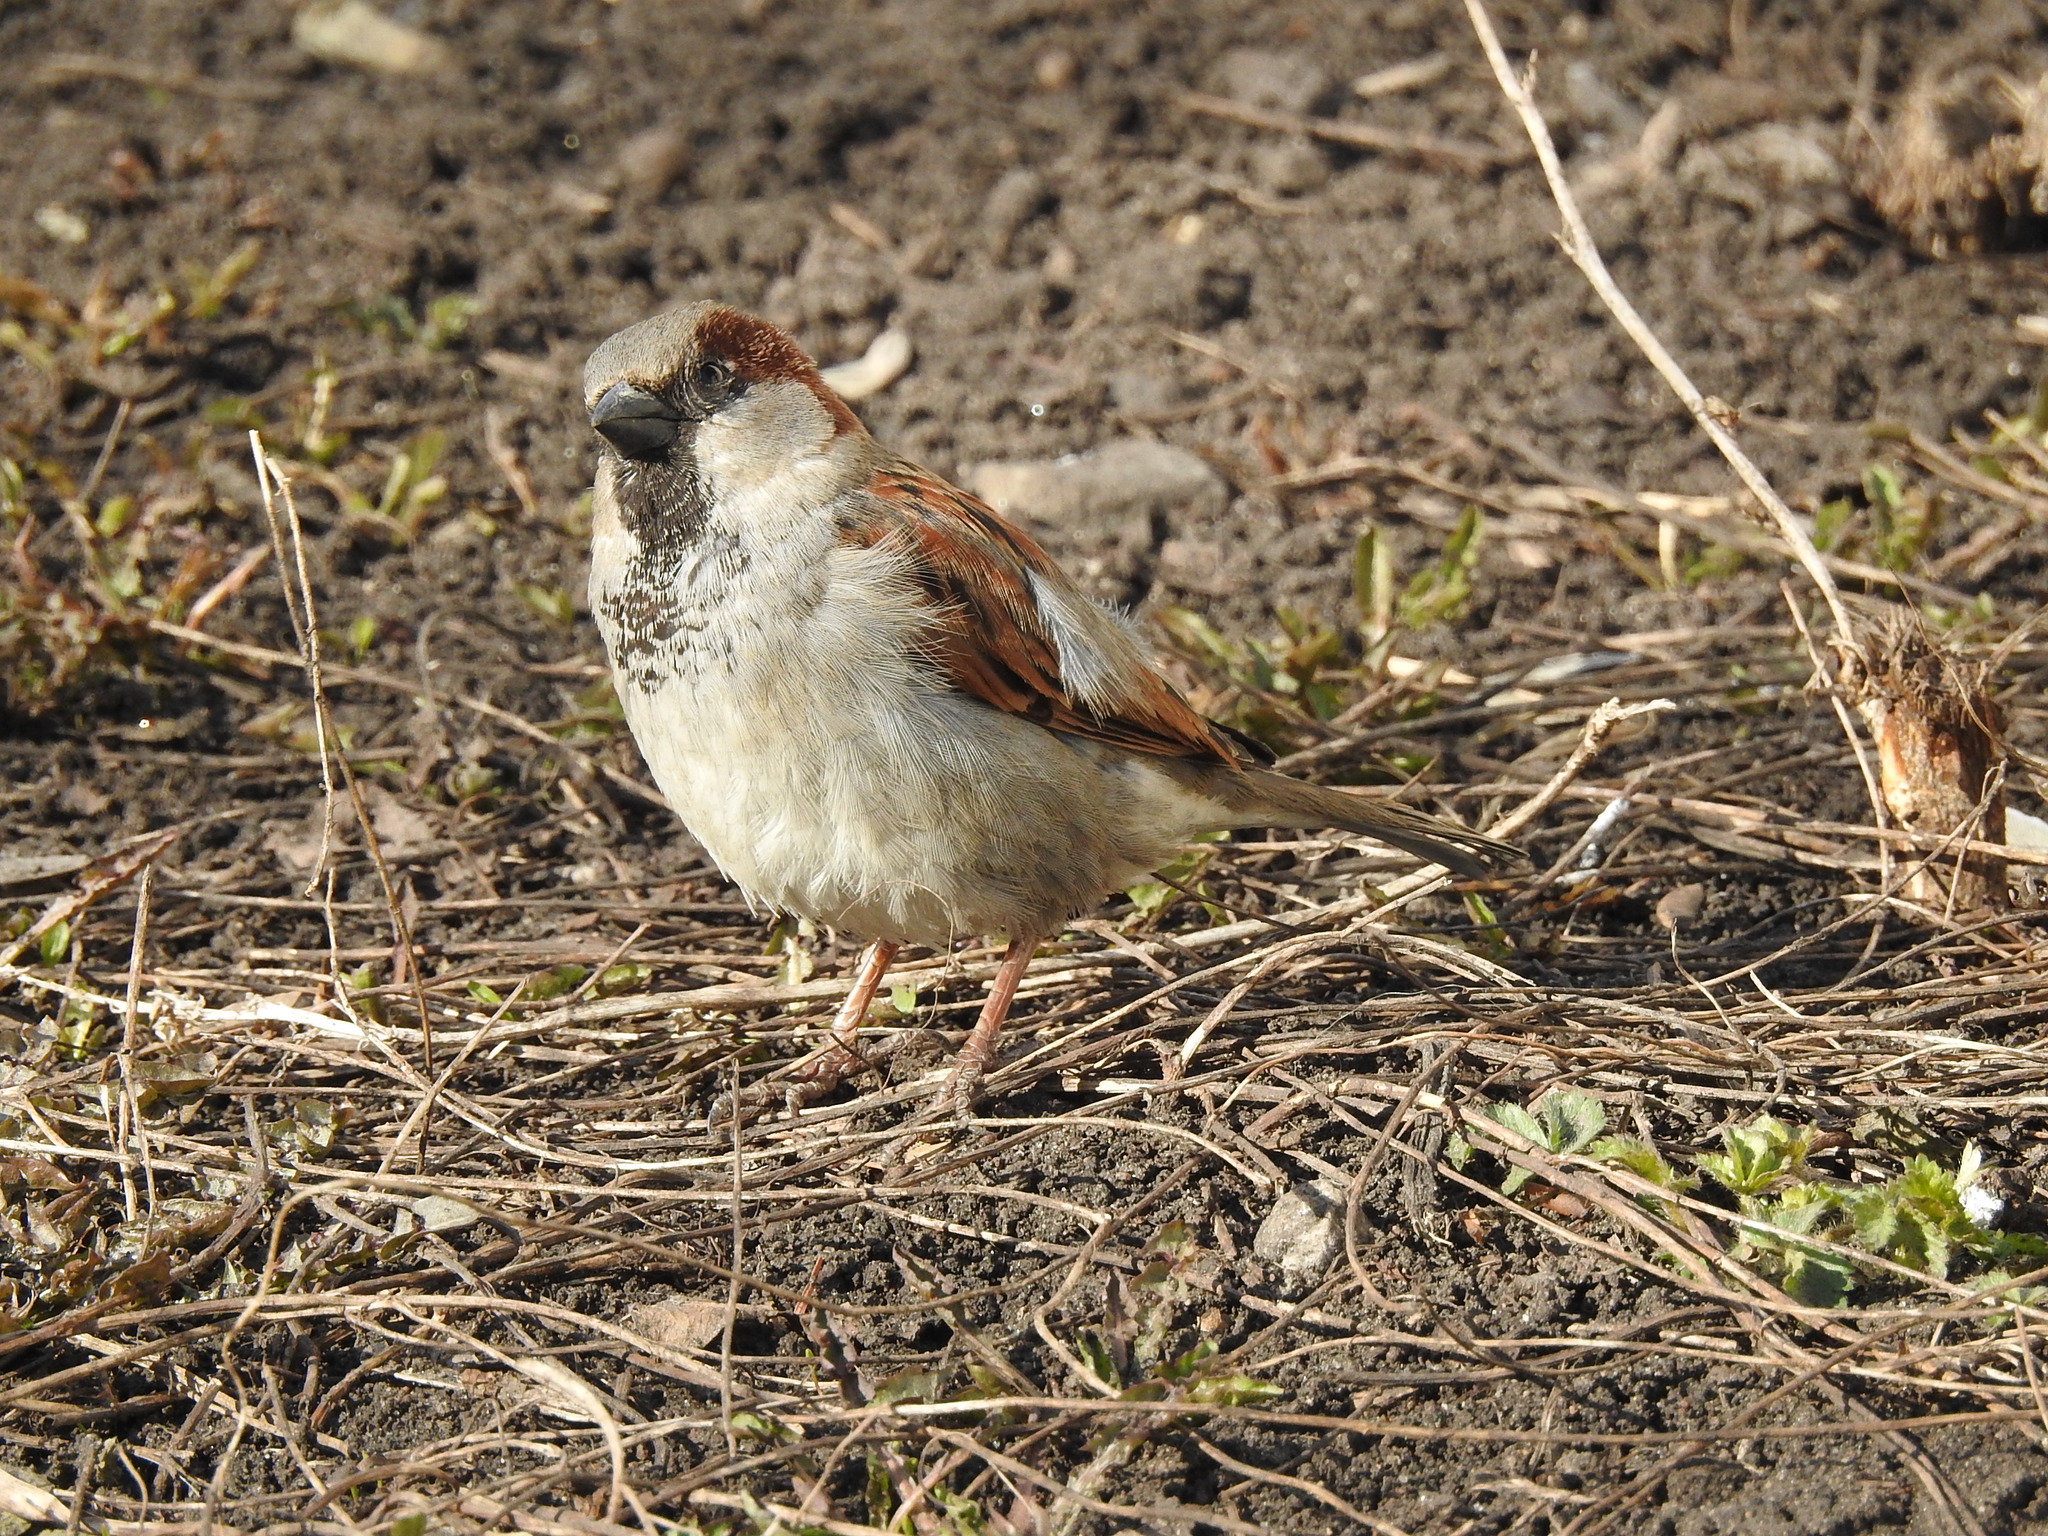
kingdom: Animalia
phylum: Chordata
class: Aves
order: Passeriformes
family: Passeridae
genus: Passer
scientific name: Passer domesticus
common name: House sparrow
